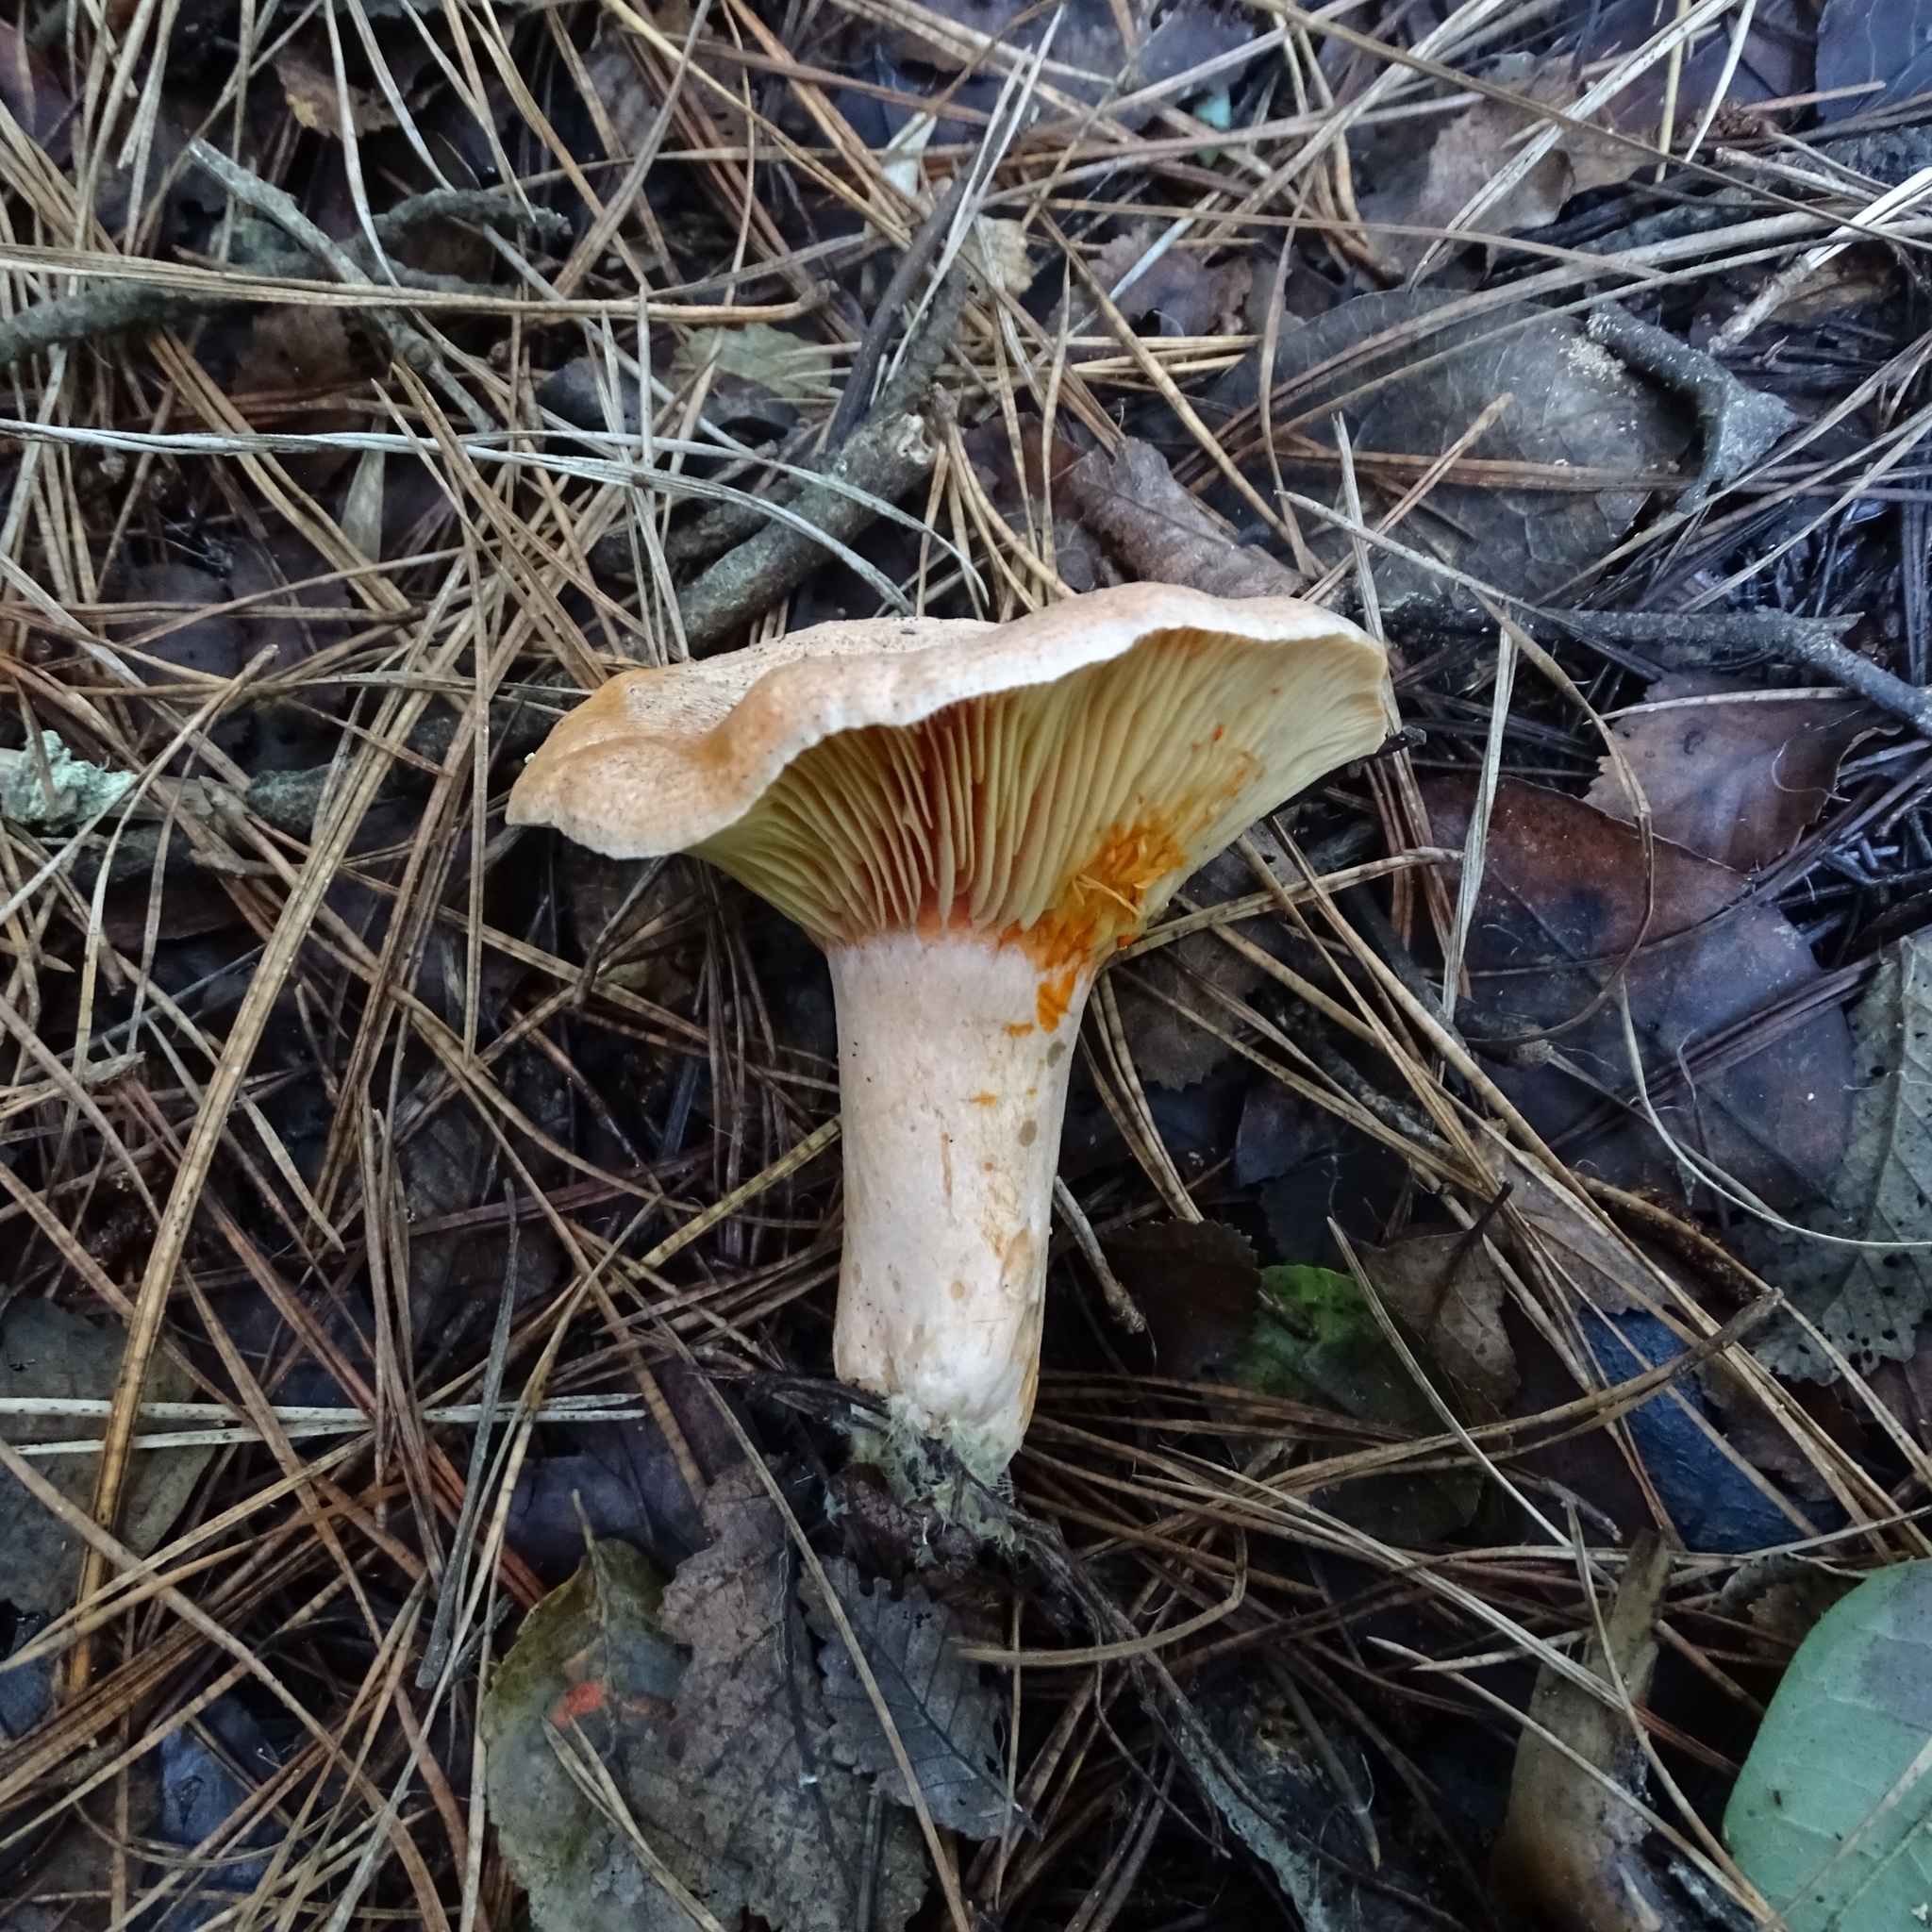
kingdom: Fungi
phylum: Basidiomycota
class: Agaricomycetes
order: Russulales
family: Russulaceae
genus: Lactarius
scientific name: Lactarius deliciosus
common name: Saffron milk-cap
